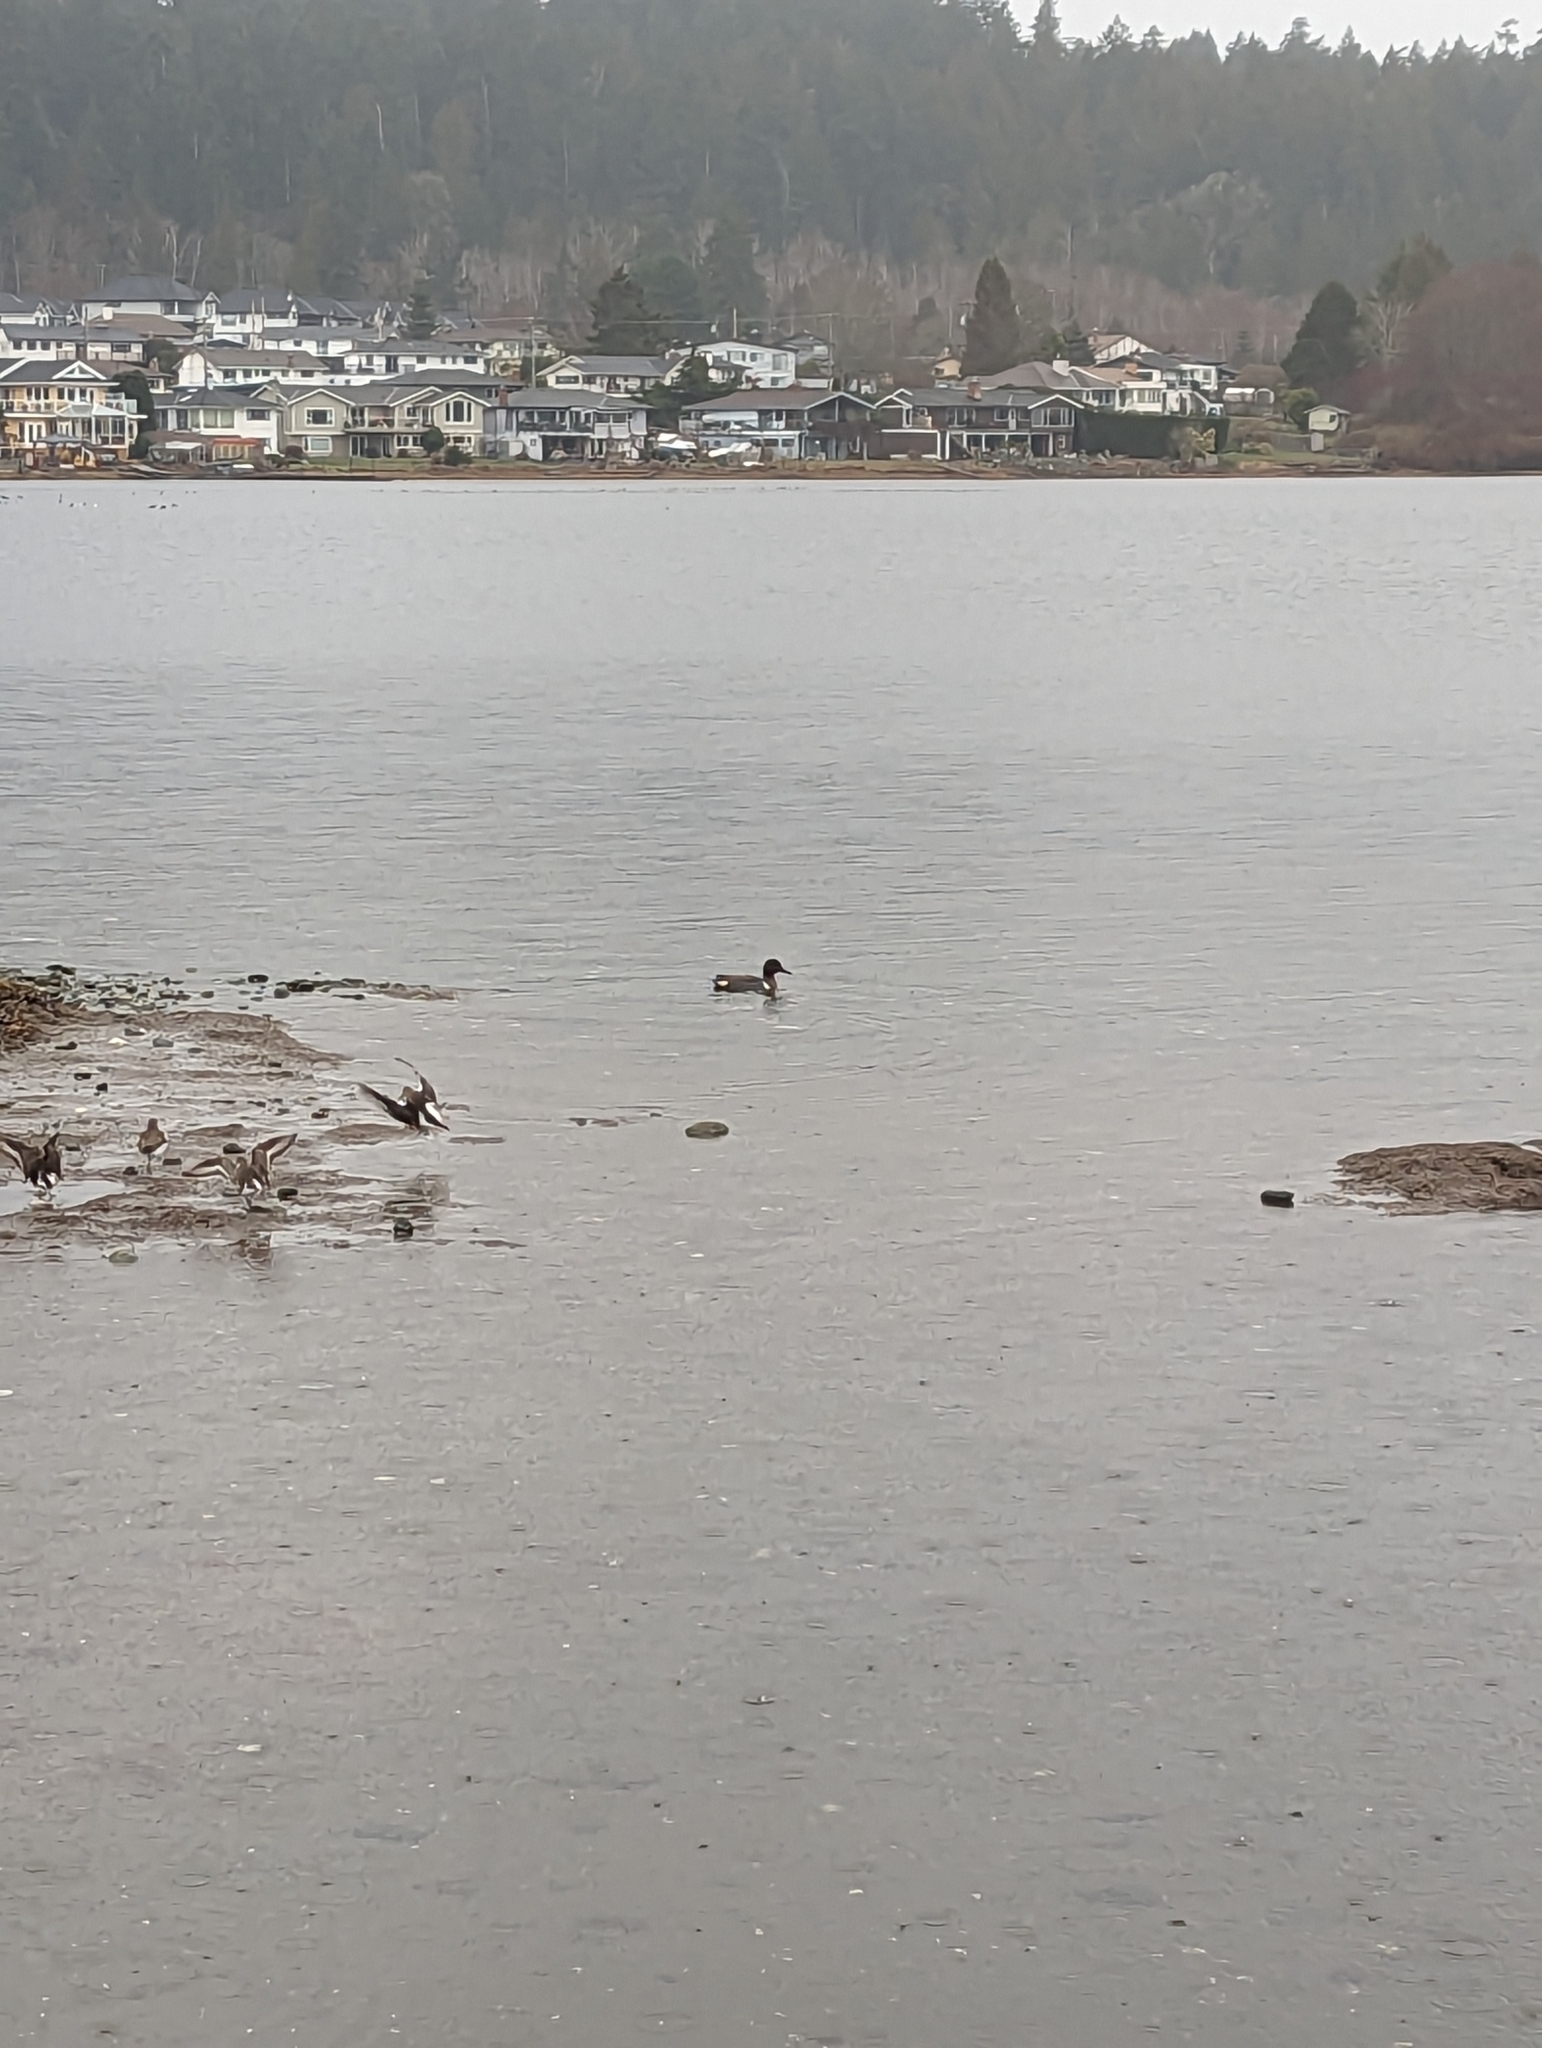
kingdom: Animalia
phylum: Chordata
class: Aves
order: Anseriformes
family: Anatidae
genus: Anas
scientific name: Anas crecca
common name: Eurasian teal
